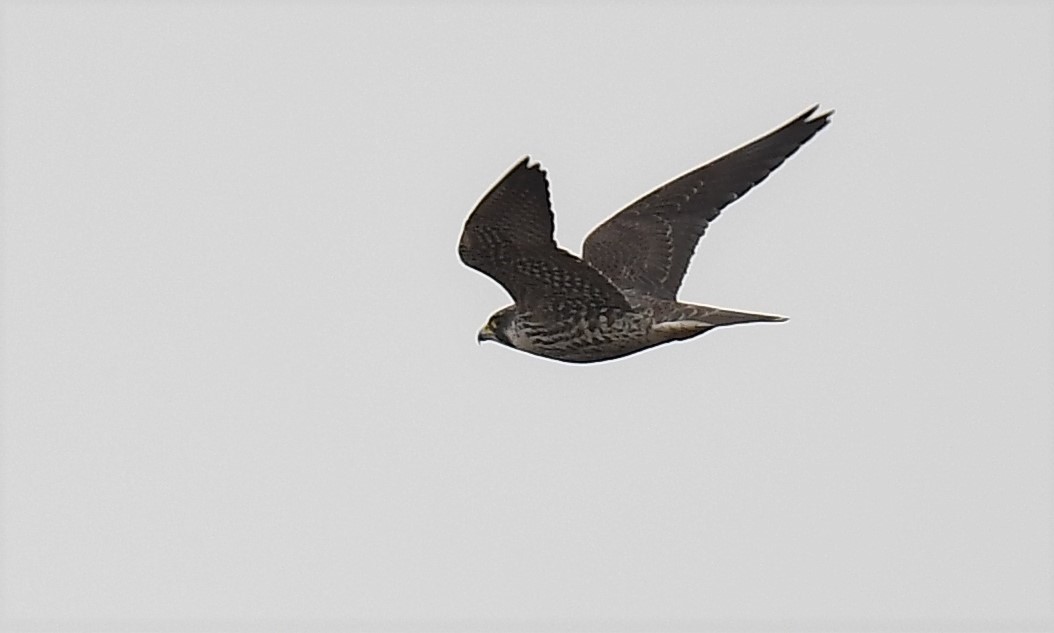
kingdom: Animalia
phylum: Chordata
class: Aves
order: Falconiformes
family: Falconidae
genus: Falco
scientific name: Falco peregrinus
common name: Peregrine falcon
